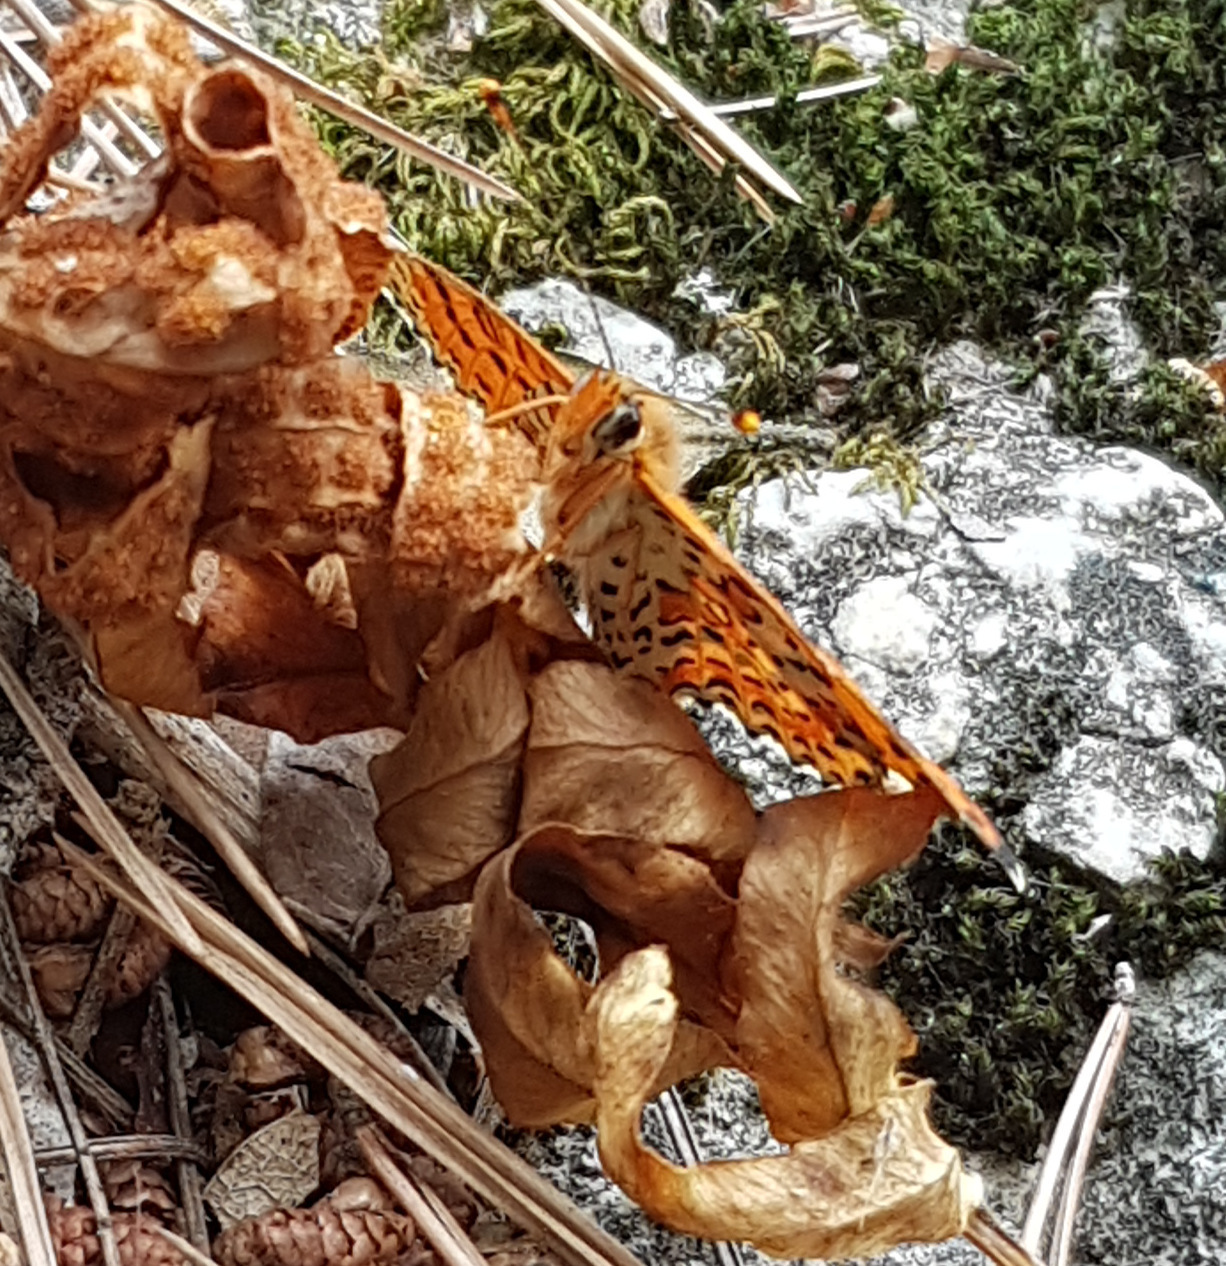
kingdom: Animalia
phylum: Arthropoda
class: Insecta
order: Lepidoptera
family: Nymphalidae
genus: Melitaea
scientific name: Melitaea didyma
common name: Spotted fritillary
